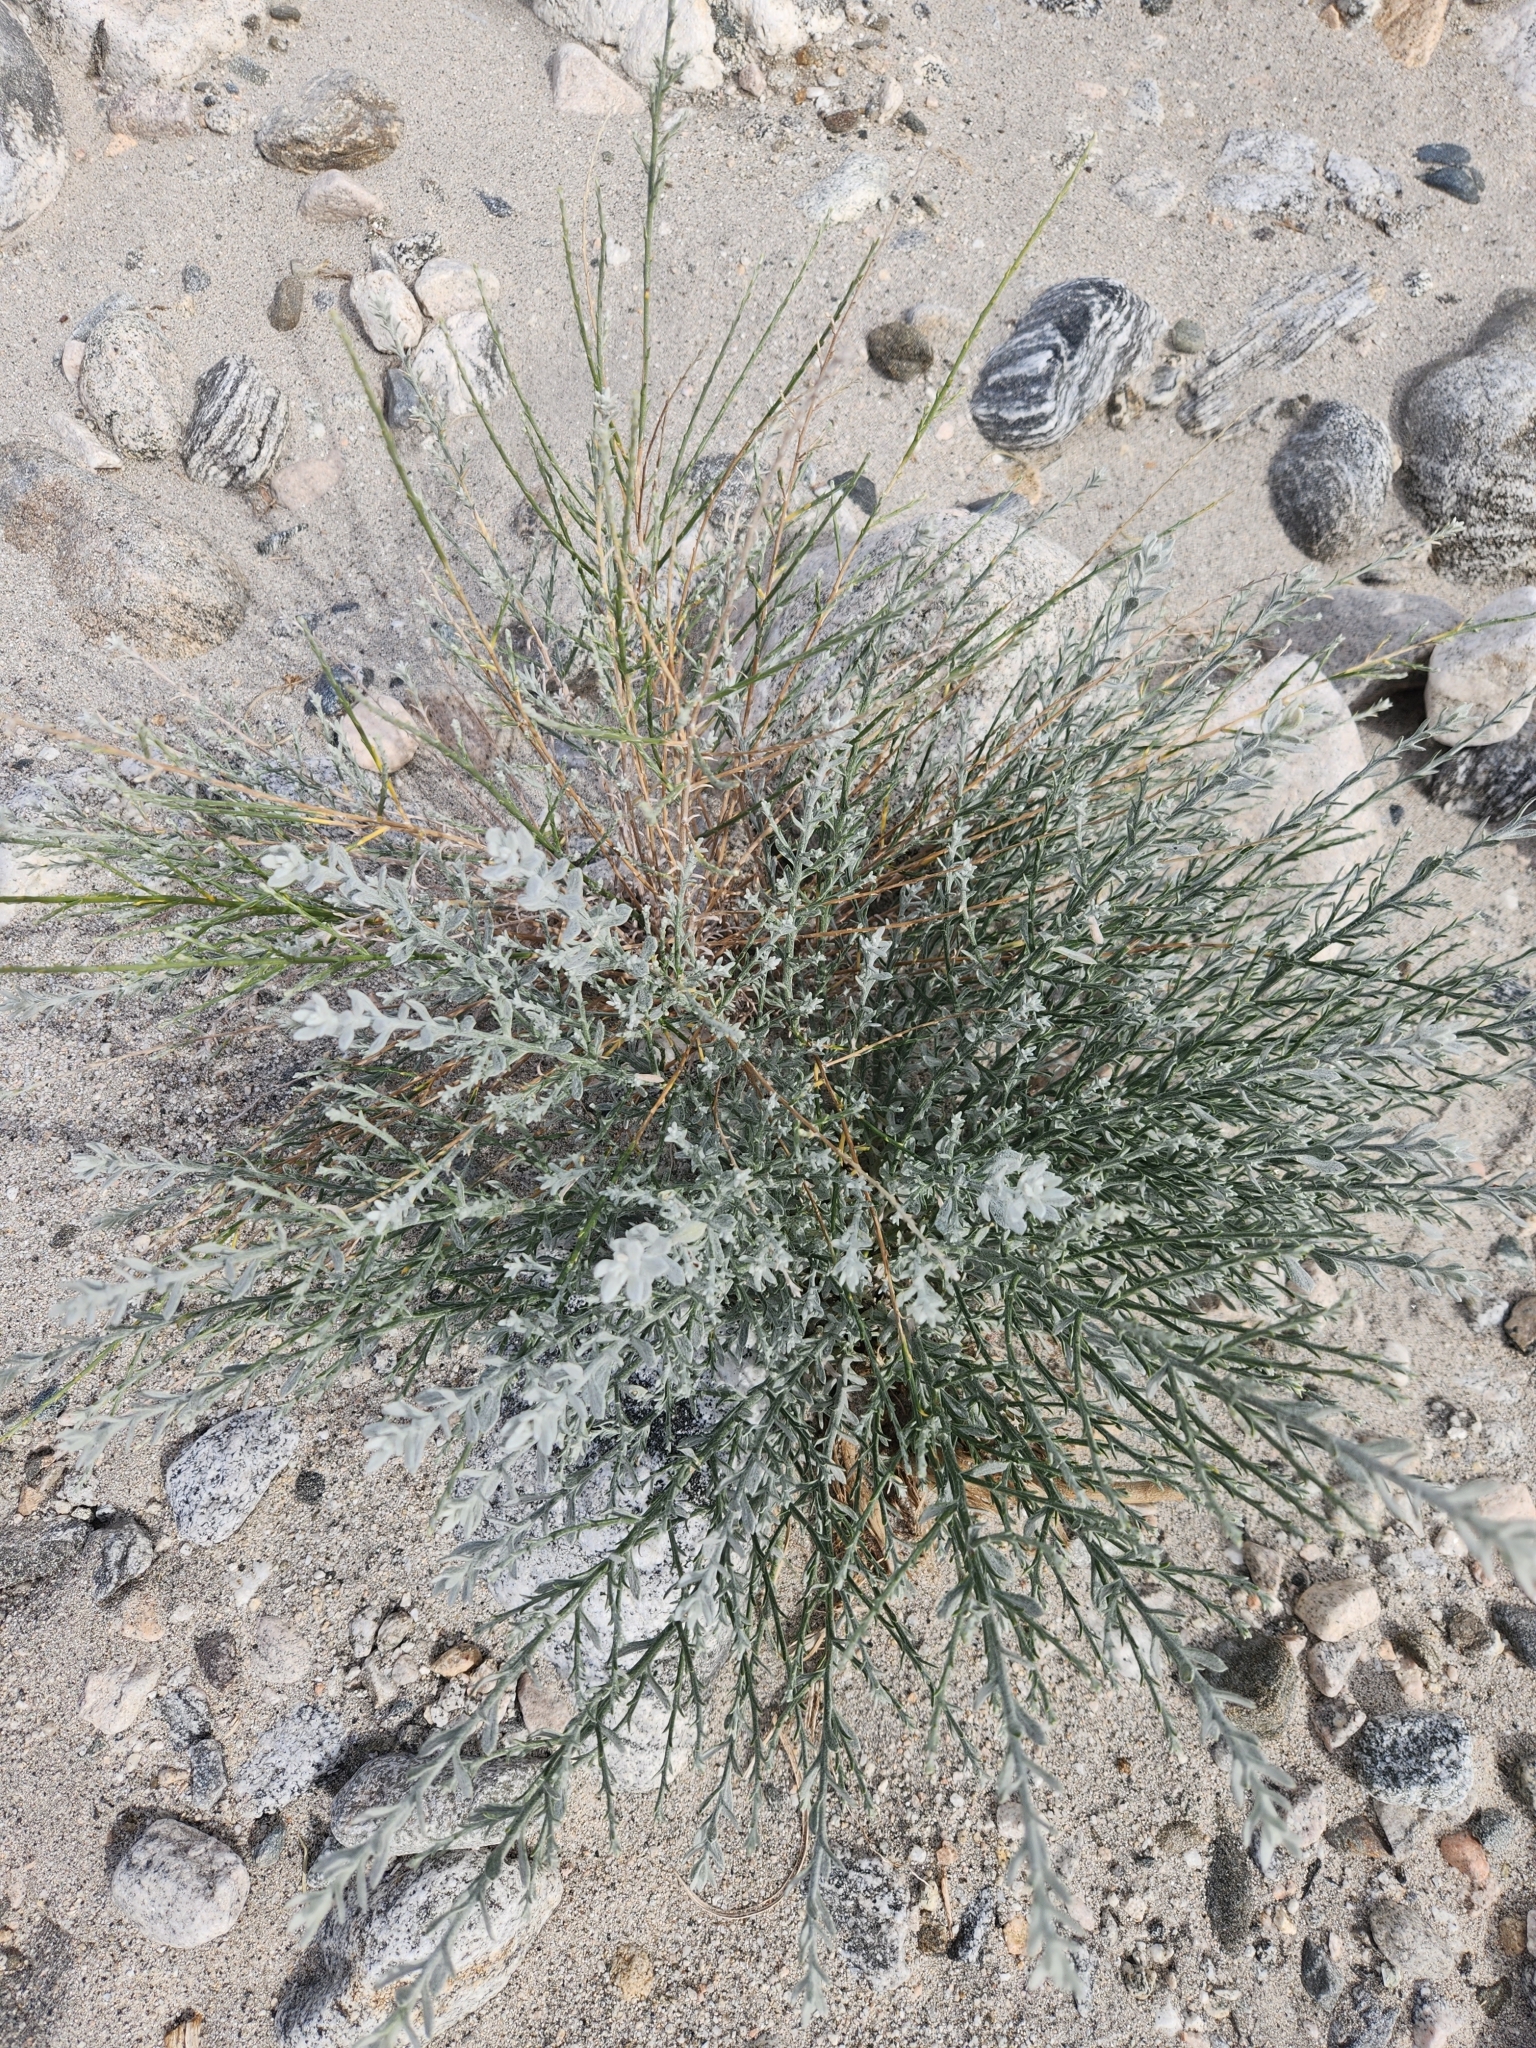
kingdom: Plantae
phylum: Tracheophyta
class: Magnoliopsida
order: Asterales
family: Asteraceae
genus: Lepidospartum
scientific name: Lepidospartum squamatum
